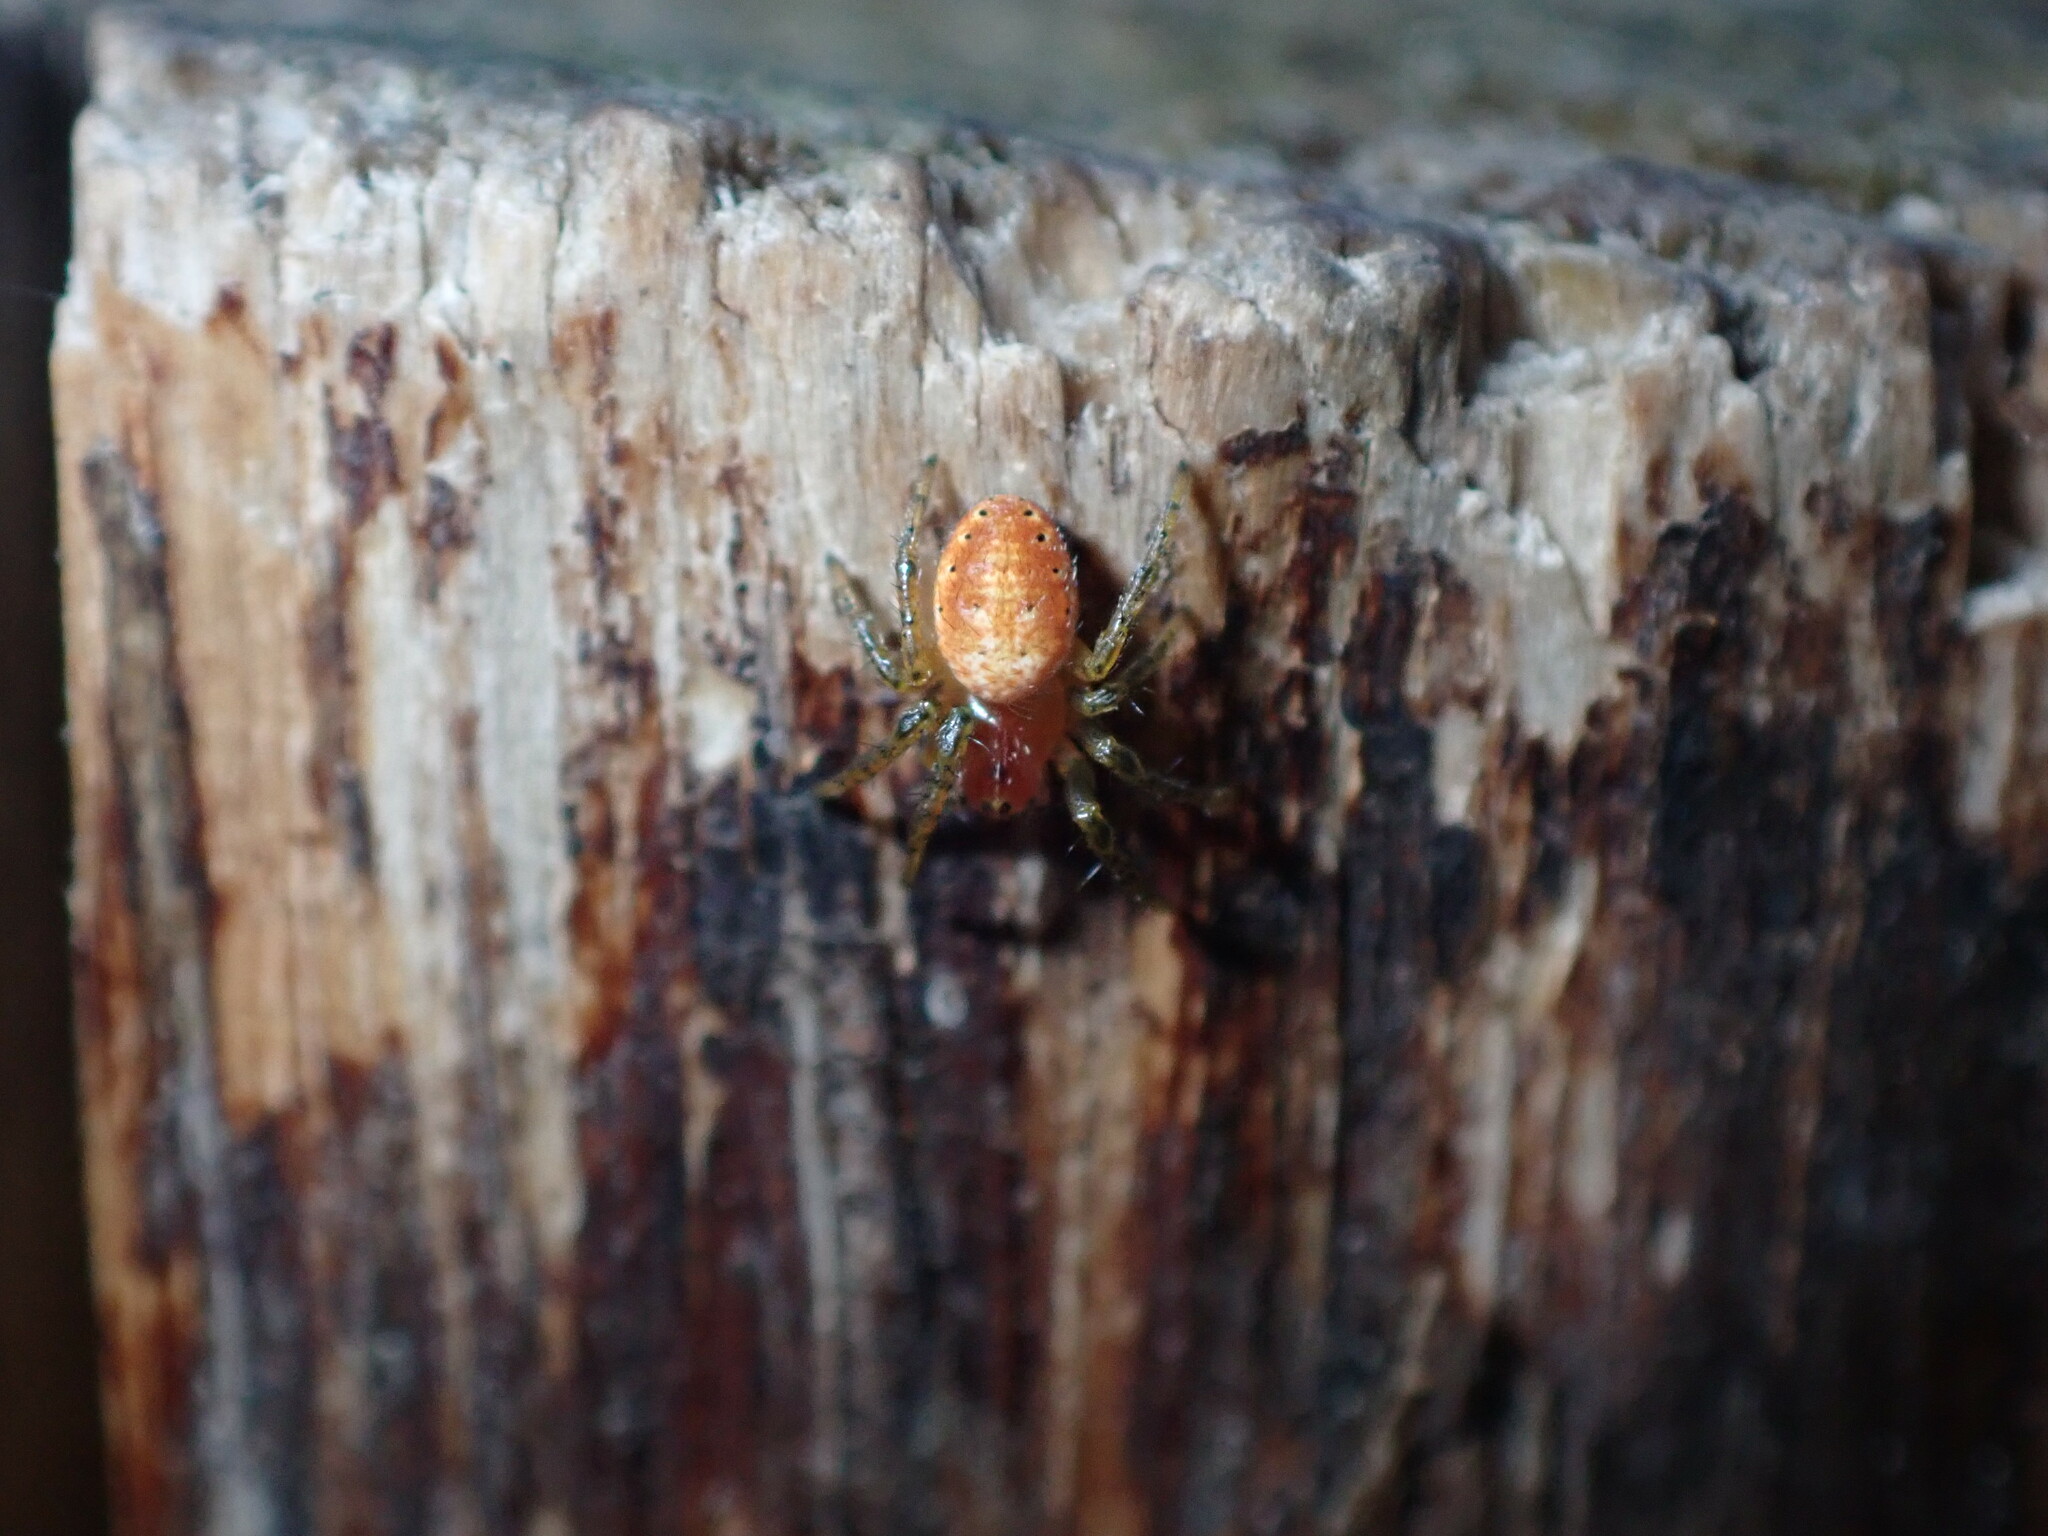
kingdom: Animalia
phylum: Arthropoda
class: Arachnida
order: Araneae
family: Araneidae
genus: Araniella
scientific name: Araniella
